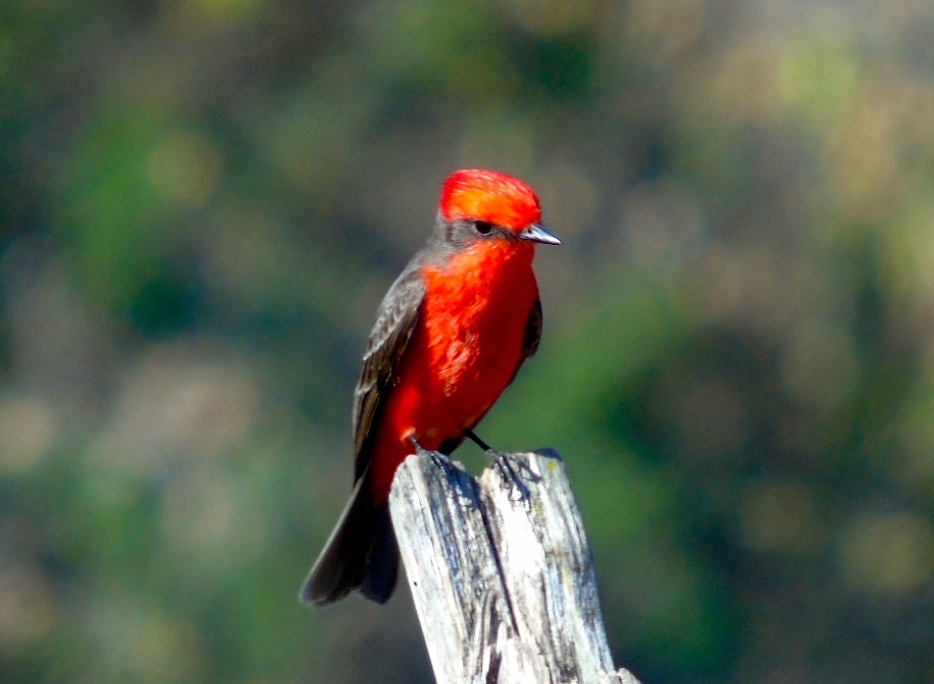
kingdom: Animalia
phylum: Chordata
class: Aves
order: Passeriformes
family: Tyrannidae
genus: Pyrocephalus
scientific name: Pyrocephalus rubinus
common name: Vermilion flycatcher
